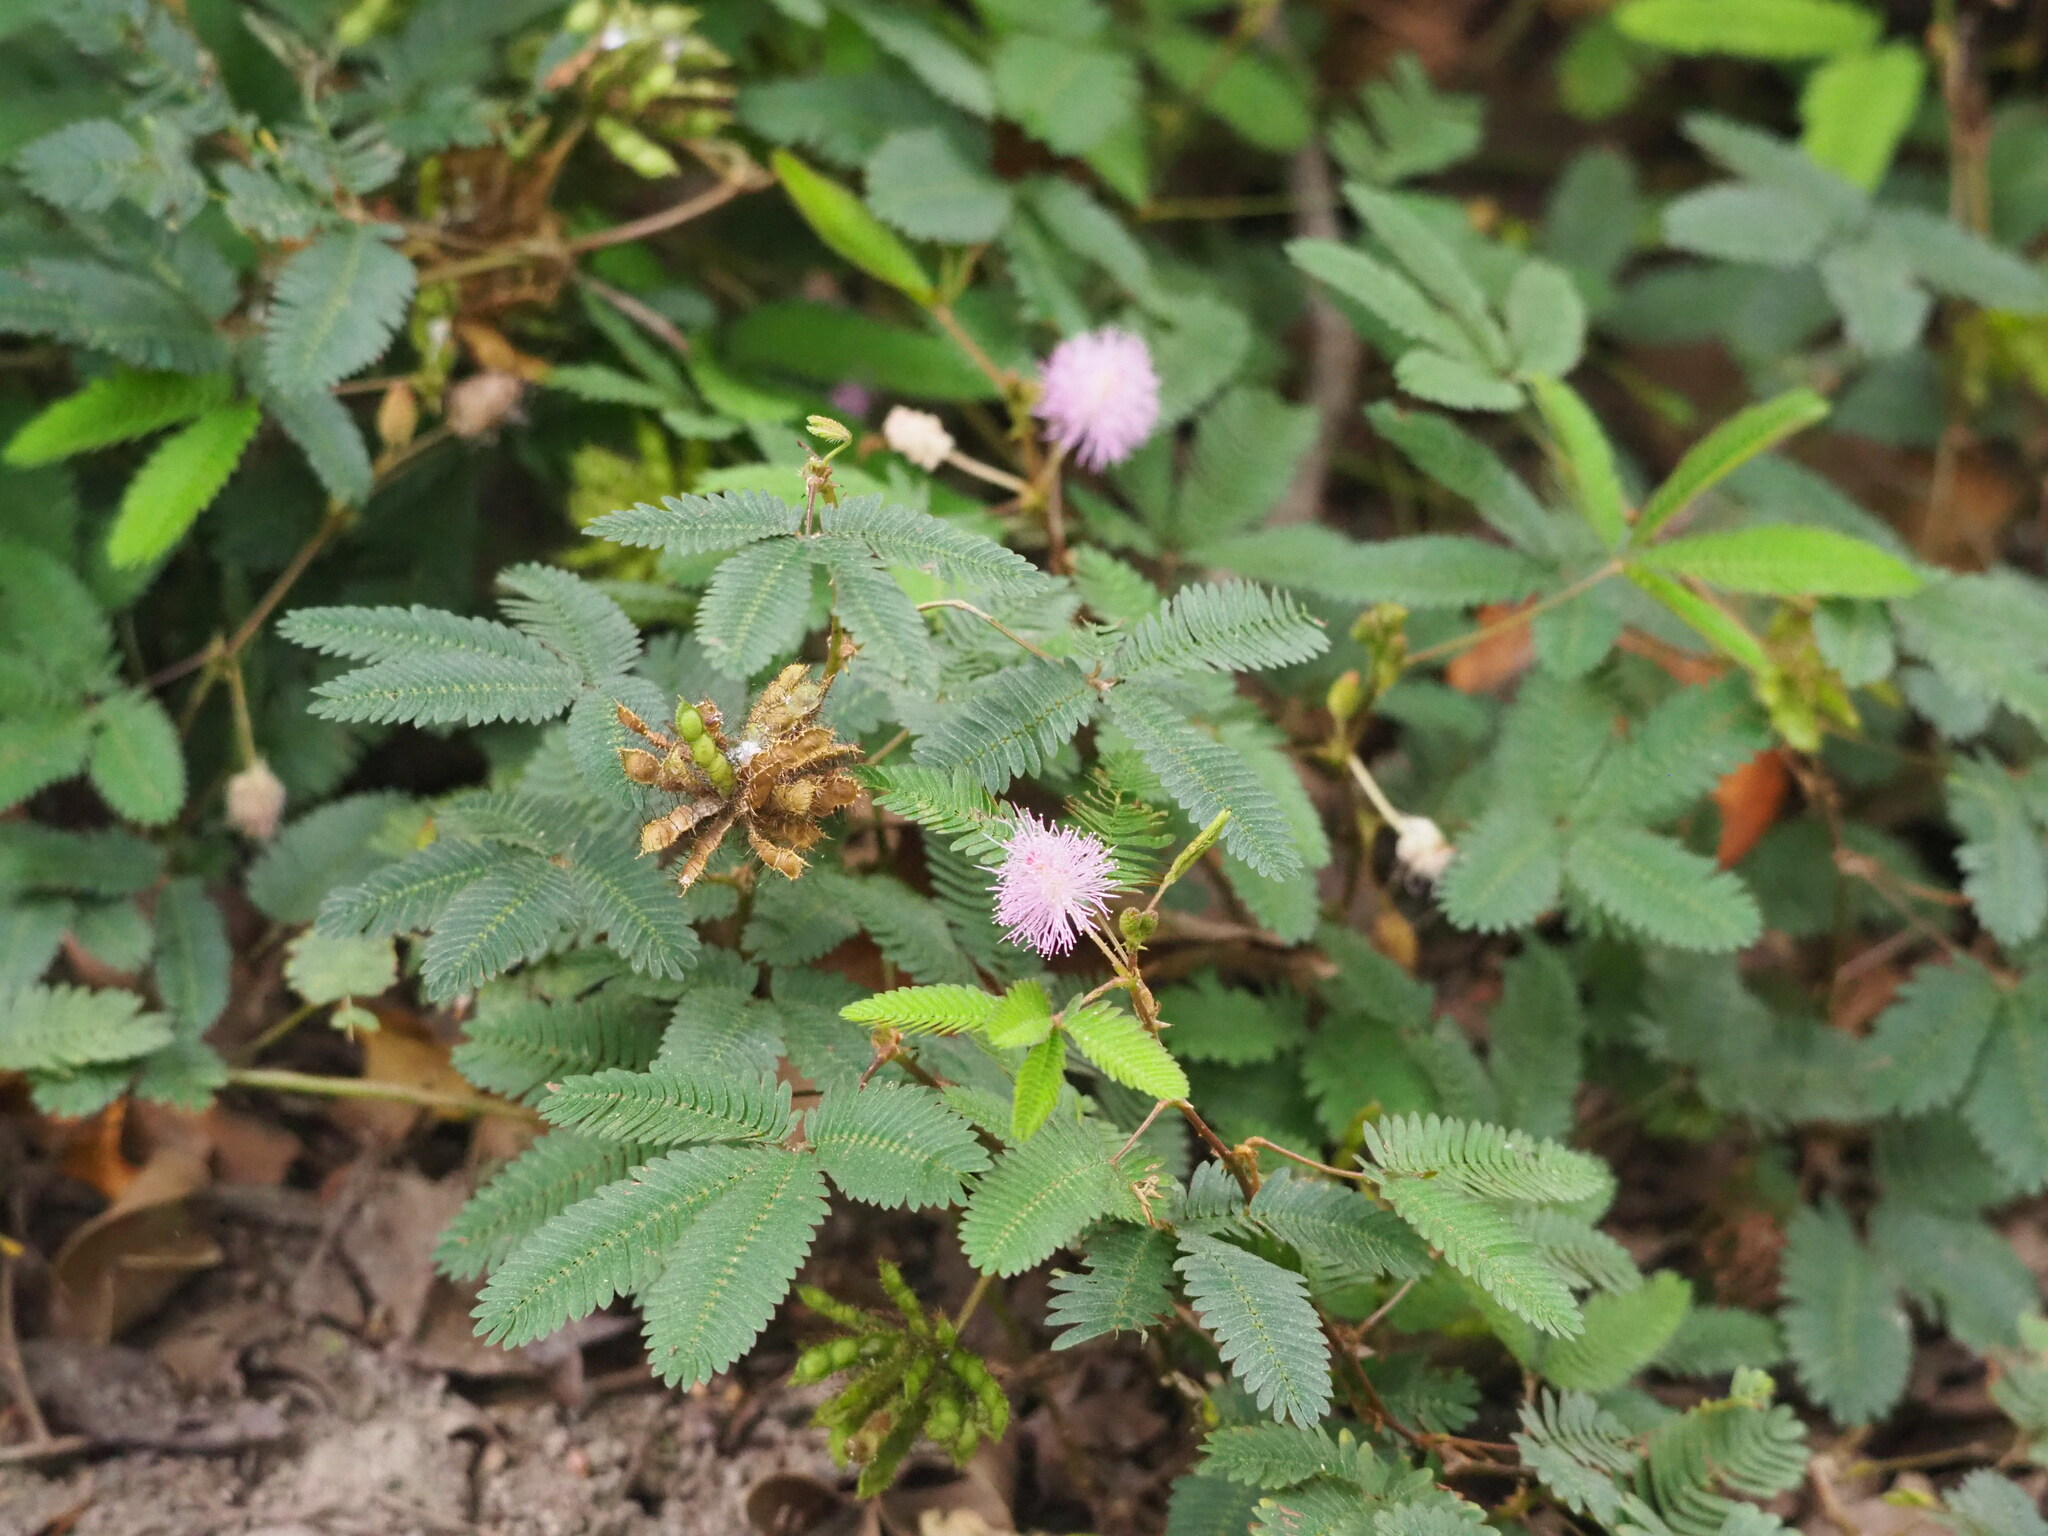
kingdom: Plantae
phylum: Tracheophyta
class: Magnoliopsida
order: Fabales
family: Fabaceae
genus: Mimosa
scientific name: Mimosa pudica
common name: Sensitive plant
